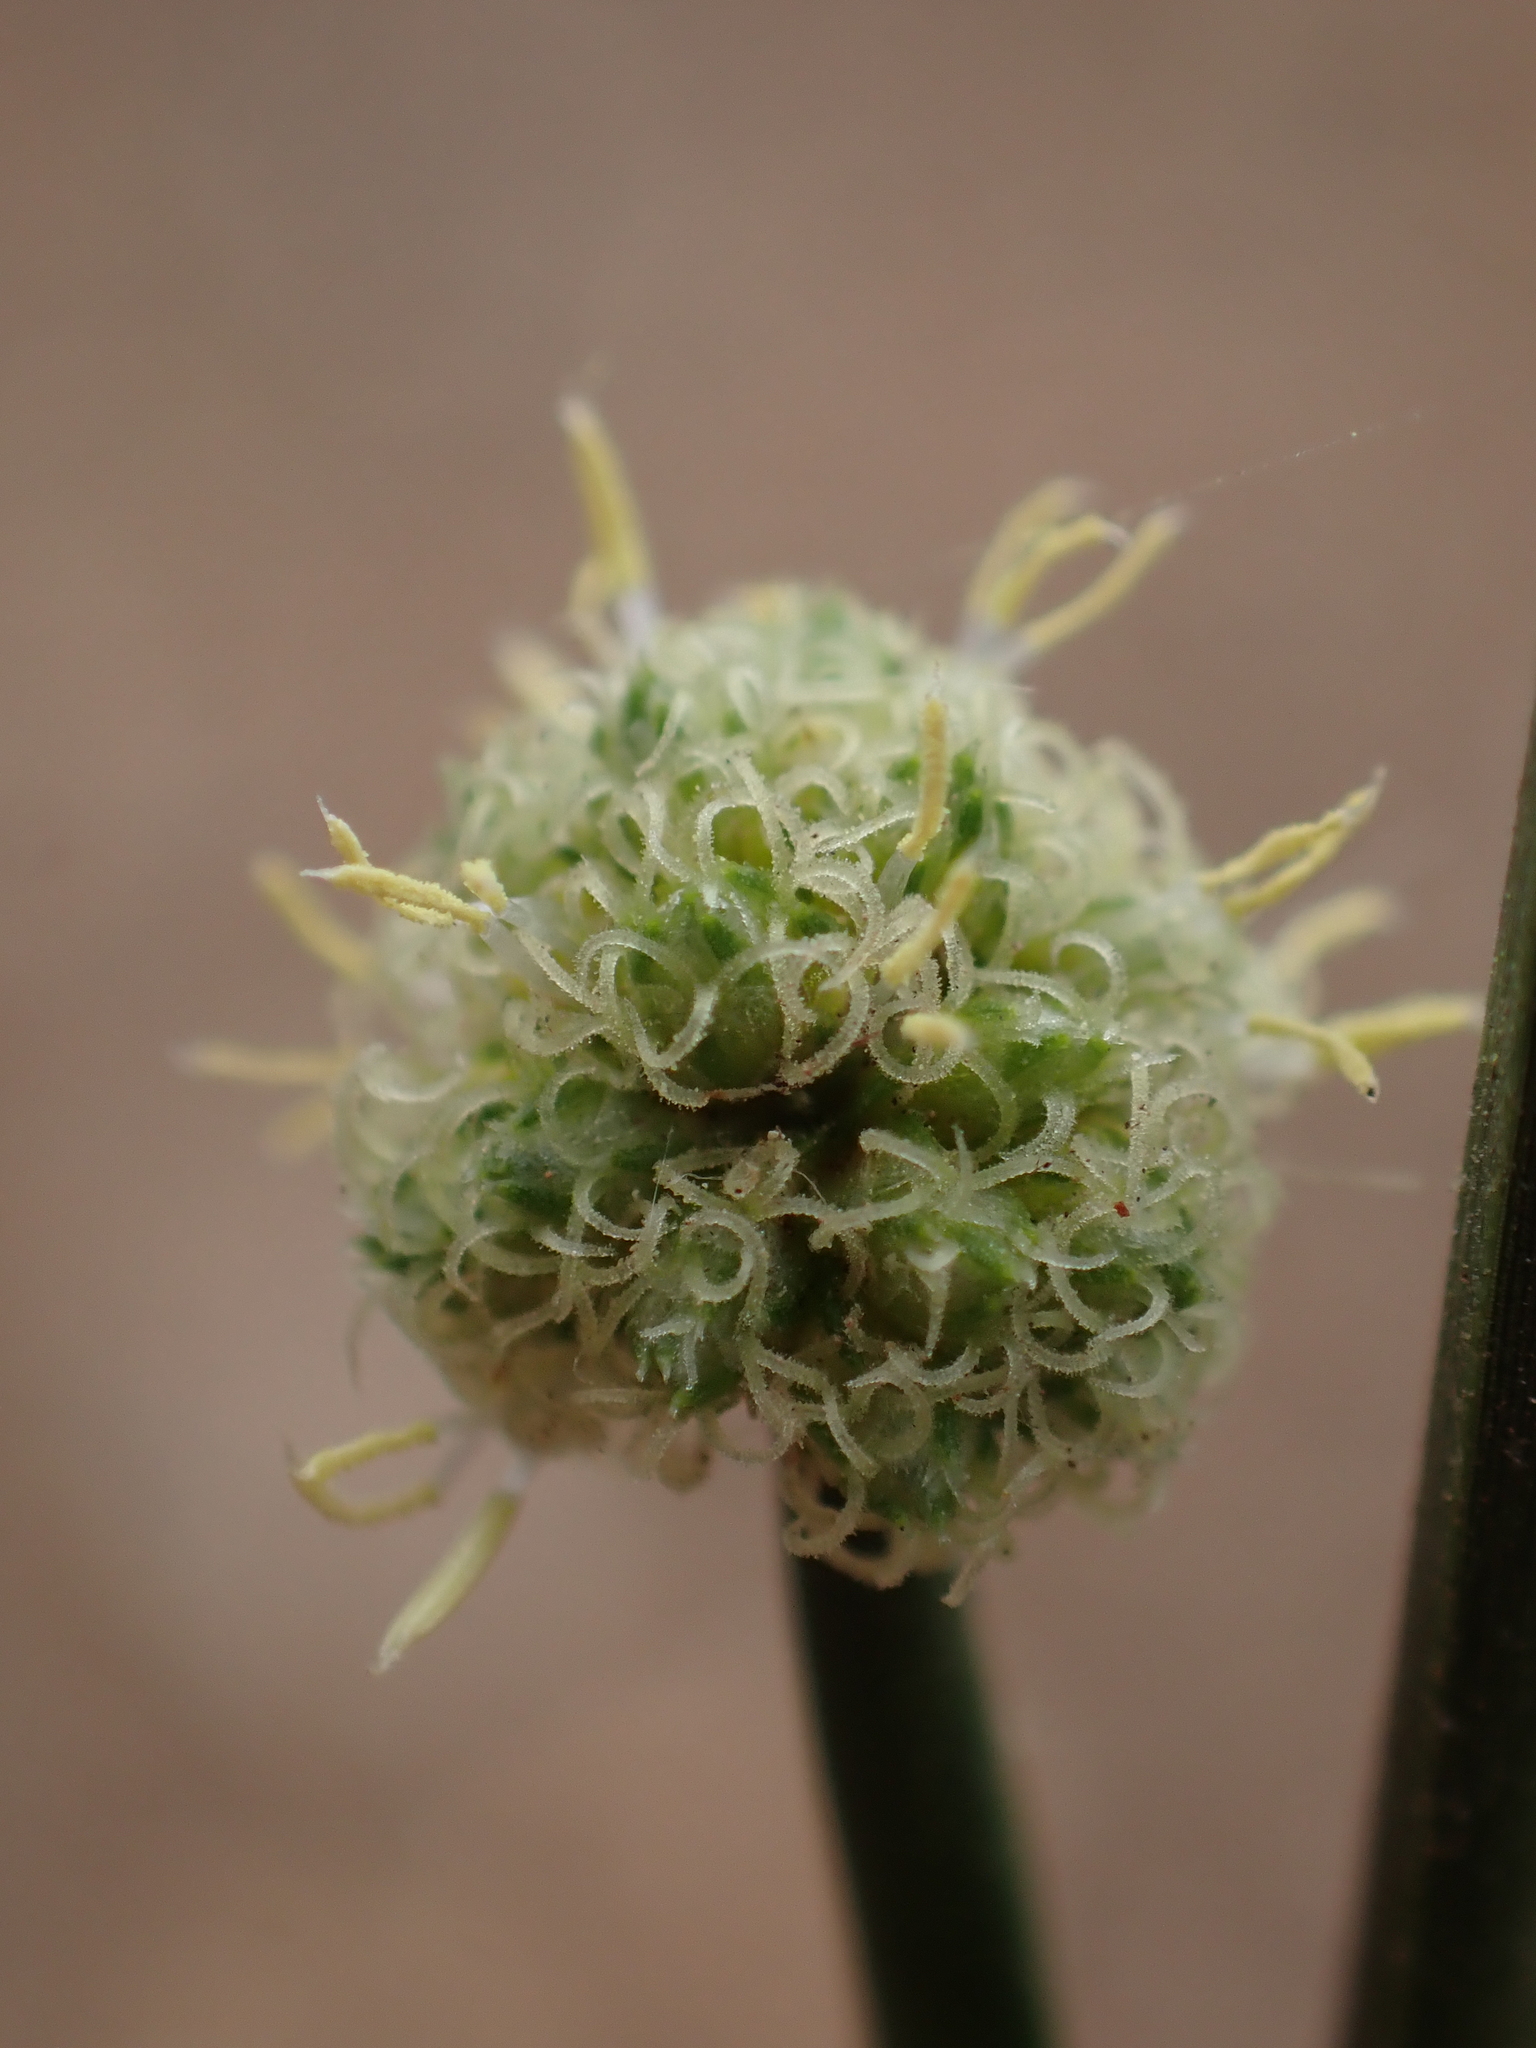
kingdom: Plantae
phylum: Tracheophyta
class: Liliopsida
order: Poales
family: Cyperaceae
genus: Scirpoides
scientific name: Scirpoides holoschoenus
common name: Round-headed club-rush
